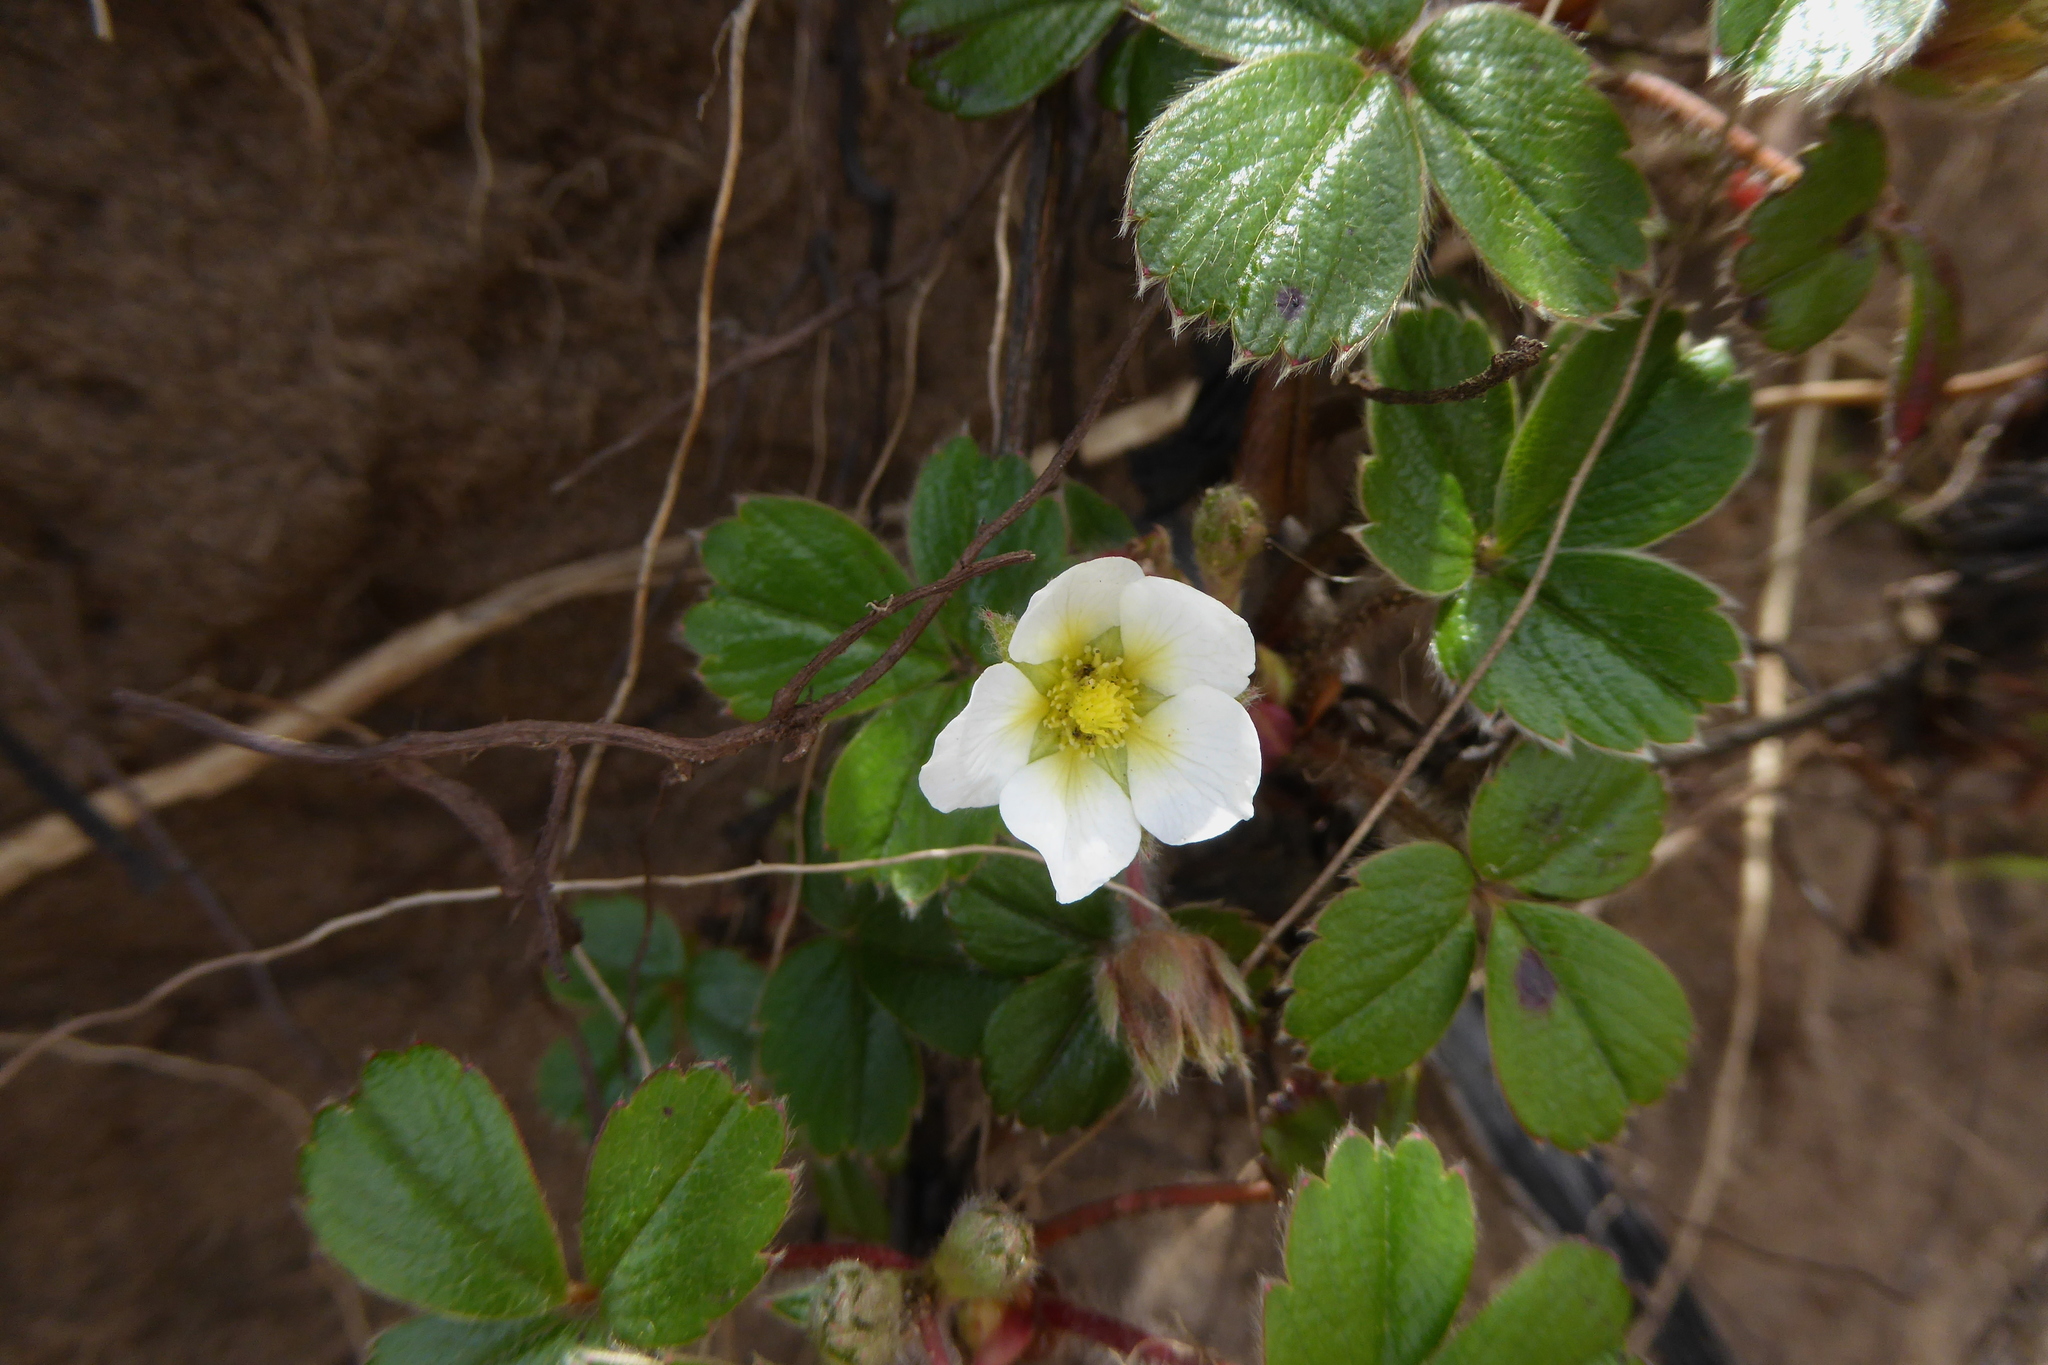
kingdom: Plantae
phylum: Tracheophyta
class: Magnoliopsida
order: Rosales
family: Rosaceae
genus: Fragaria
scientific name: Fragaria vesca
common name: Wild strawberry
